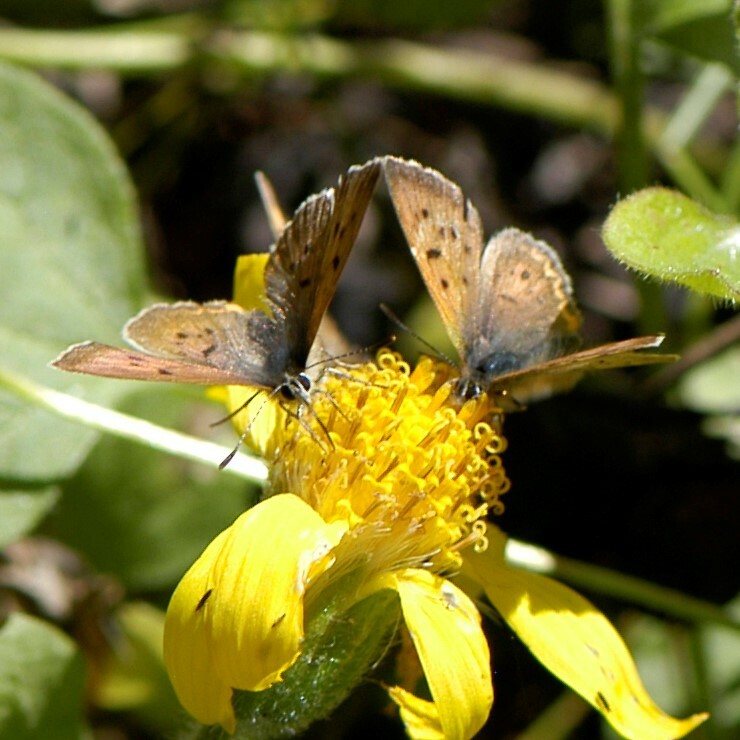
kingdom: Animalia
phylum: Arthropoda
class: Insecta
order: Lepidoptera
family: Lycaenidae
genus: Tharsalea
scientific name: Tharsalea dorcas
